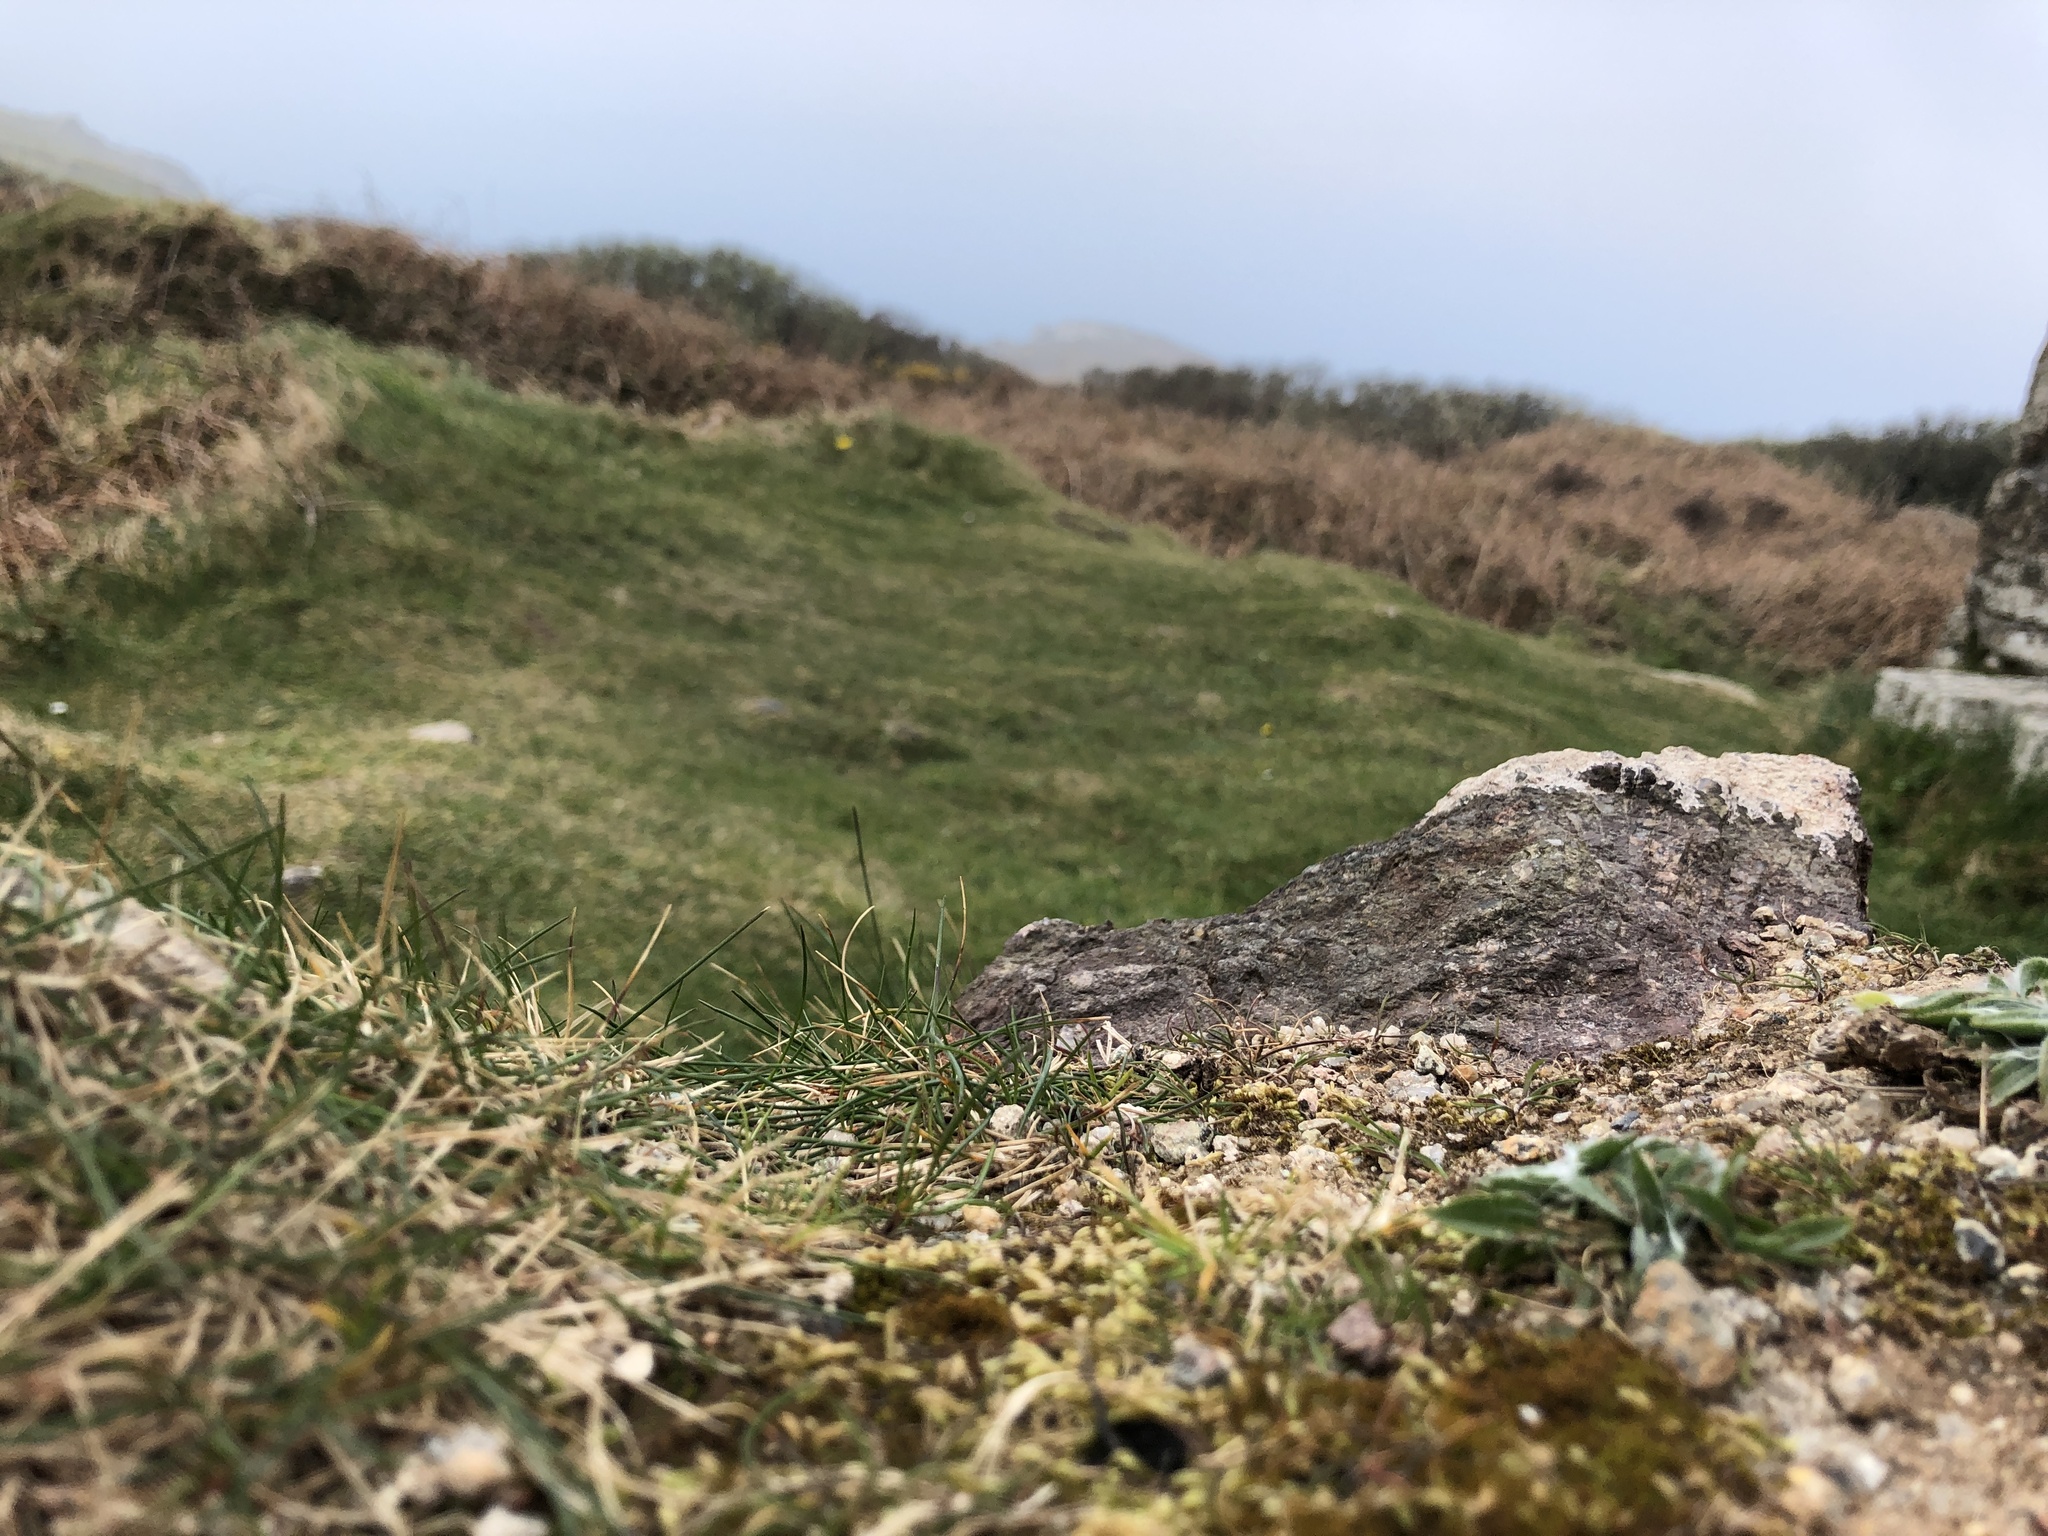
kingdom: Plantae
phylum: Bryophyta
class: Bryopsida
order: Hypnales
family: Brachytheciaceae
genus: Scleropodium
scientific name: Scleropodium touretii
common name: Glass-wort feather-moss
